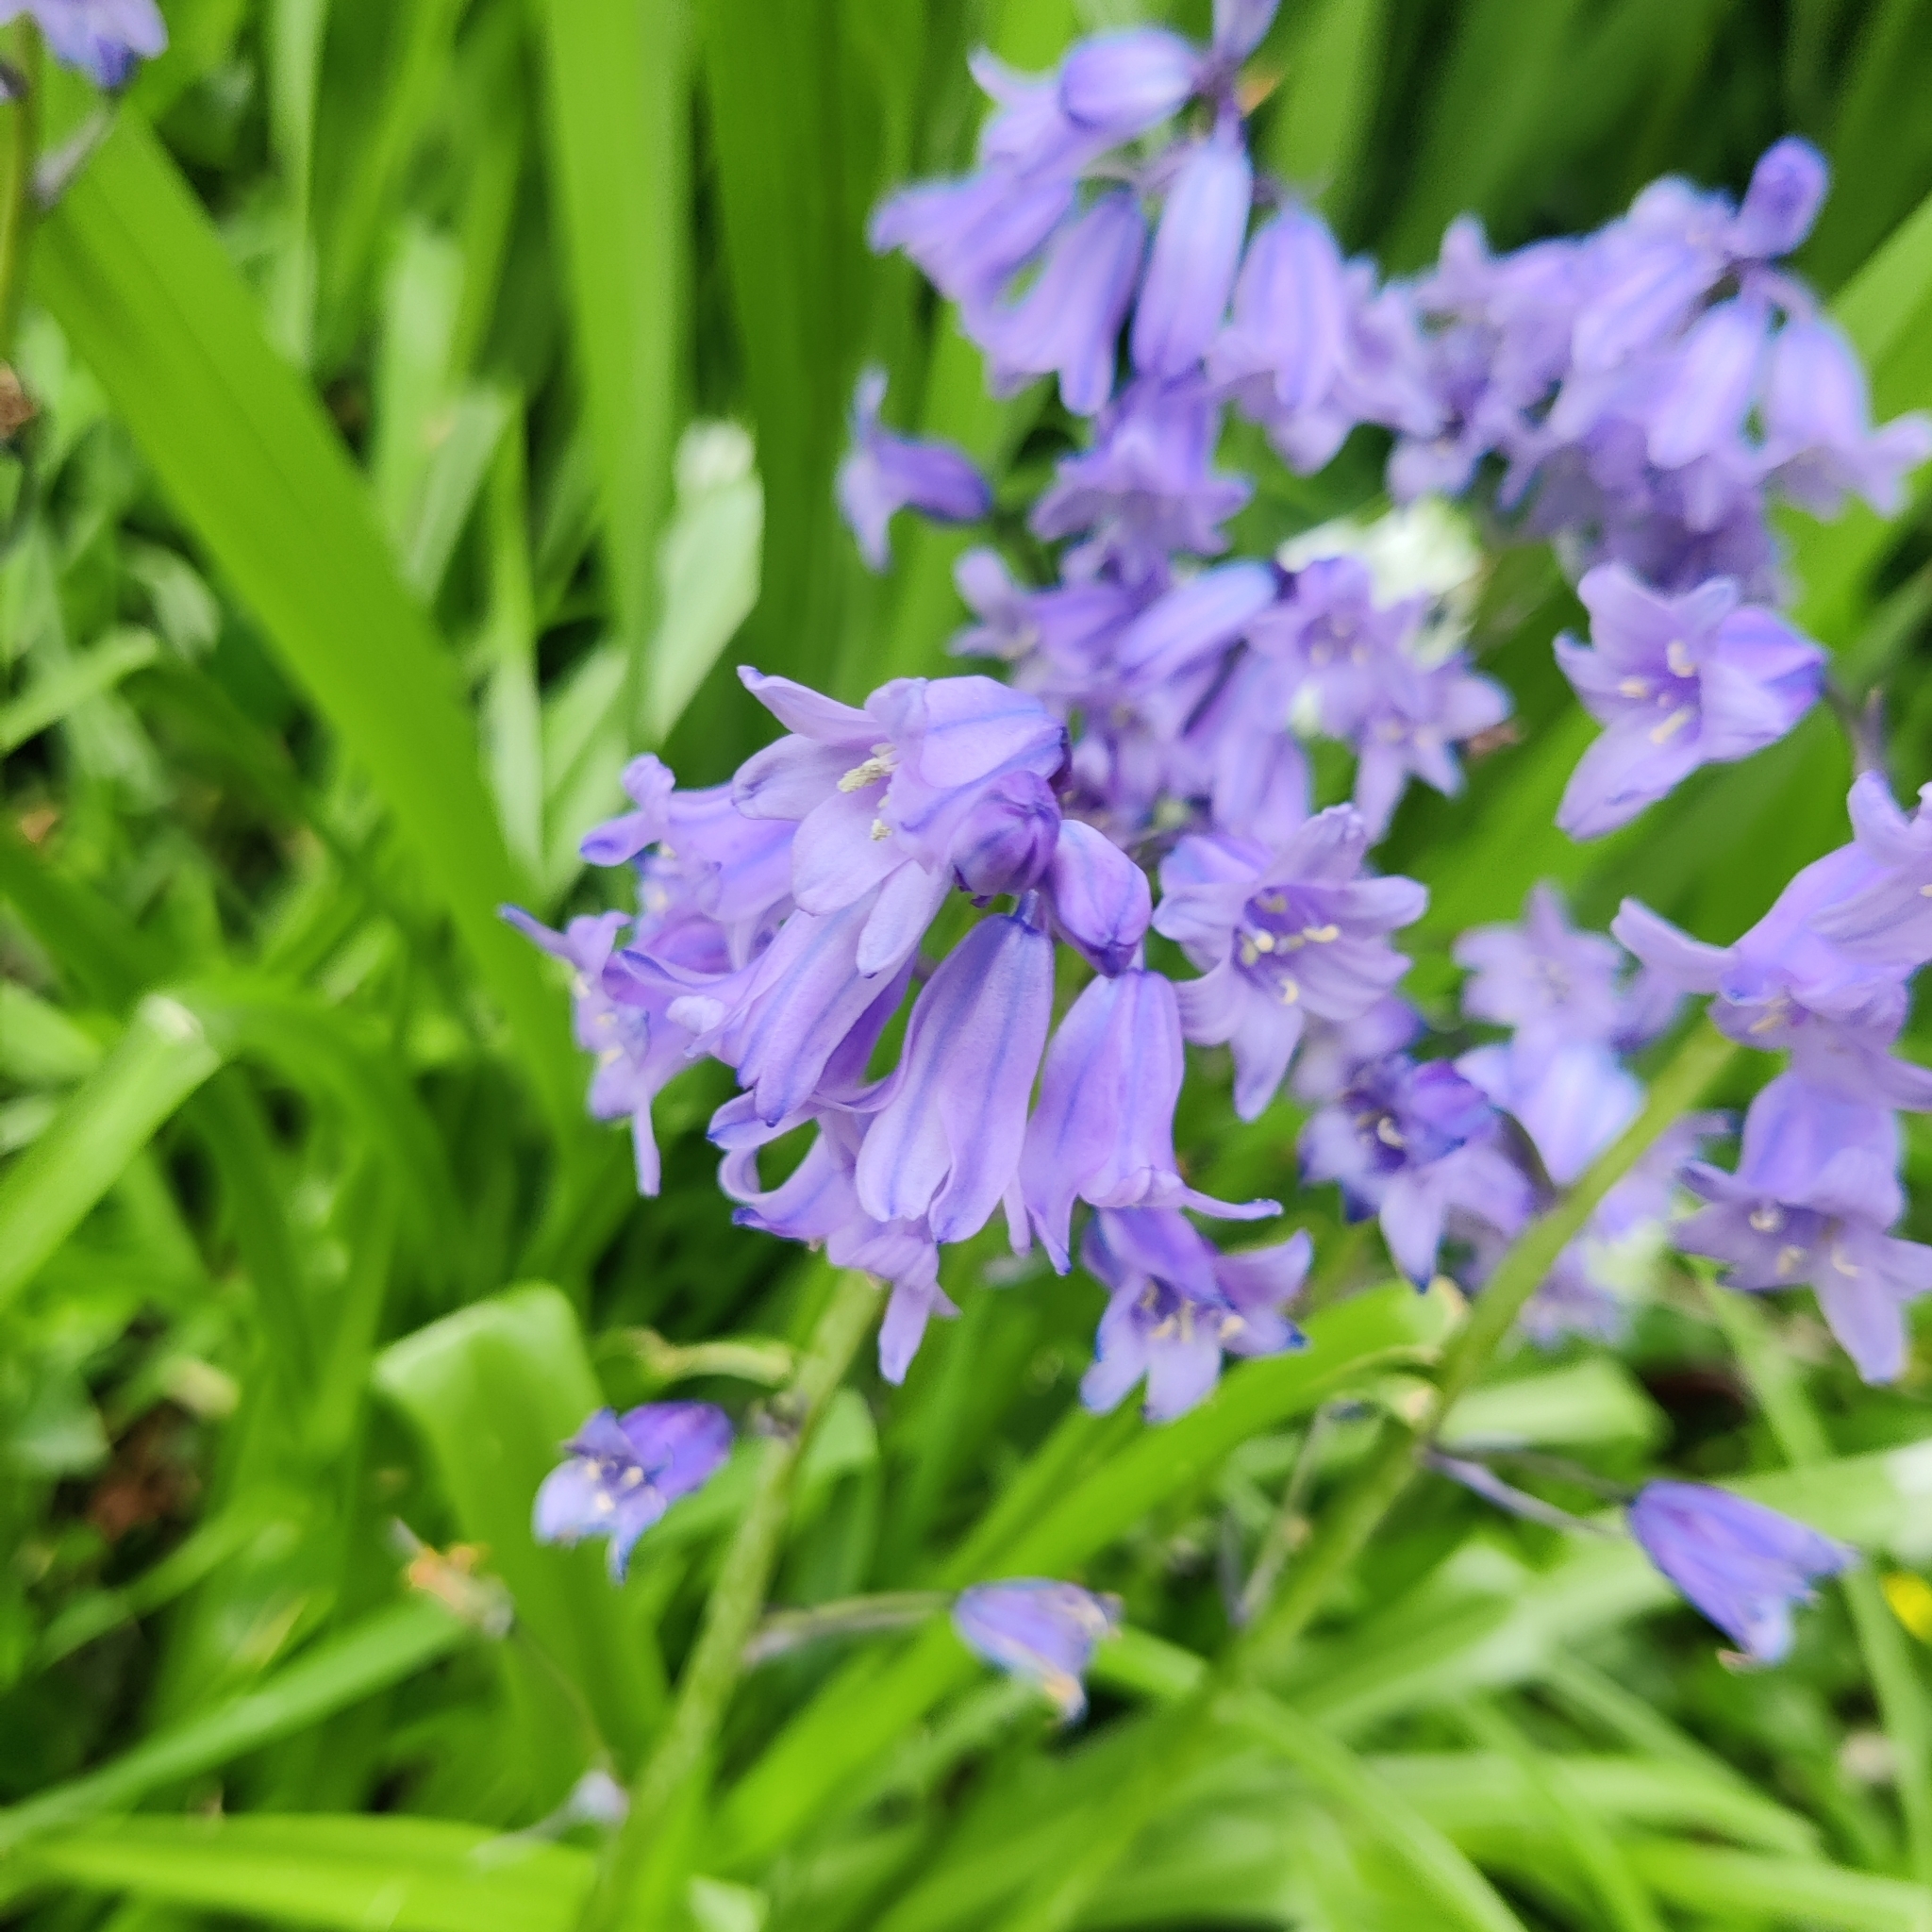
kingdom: Plantae
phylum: Tracheophyta
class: Liliopsida
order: Asparagales
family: Asparagaceae
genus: Hyacinthoides
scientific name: Hyacinthoides massartiana
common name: Hyacinthoides
